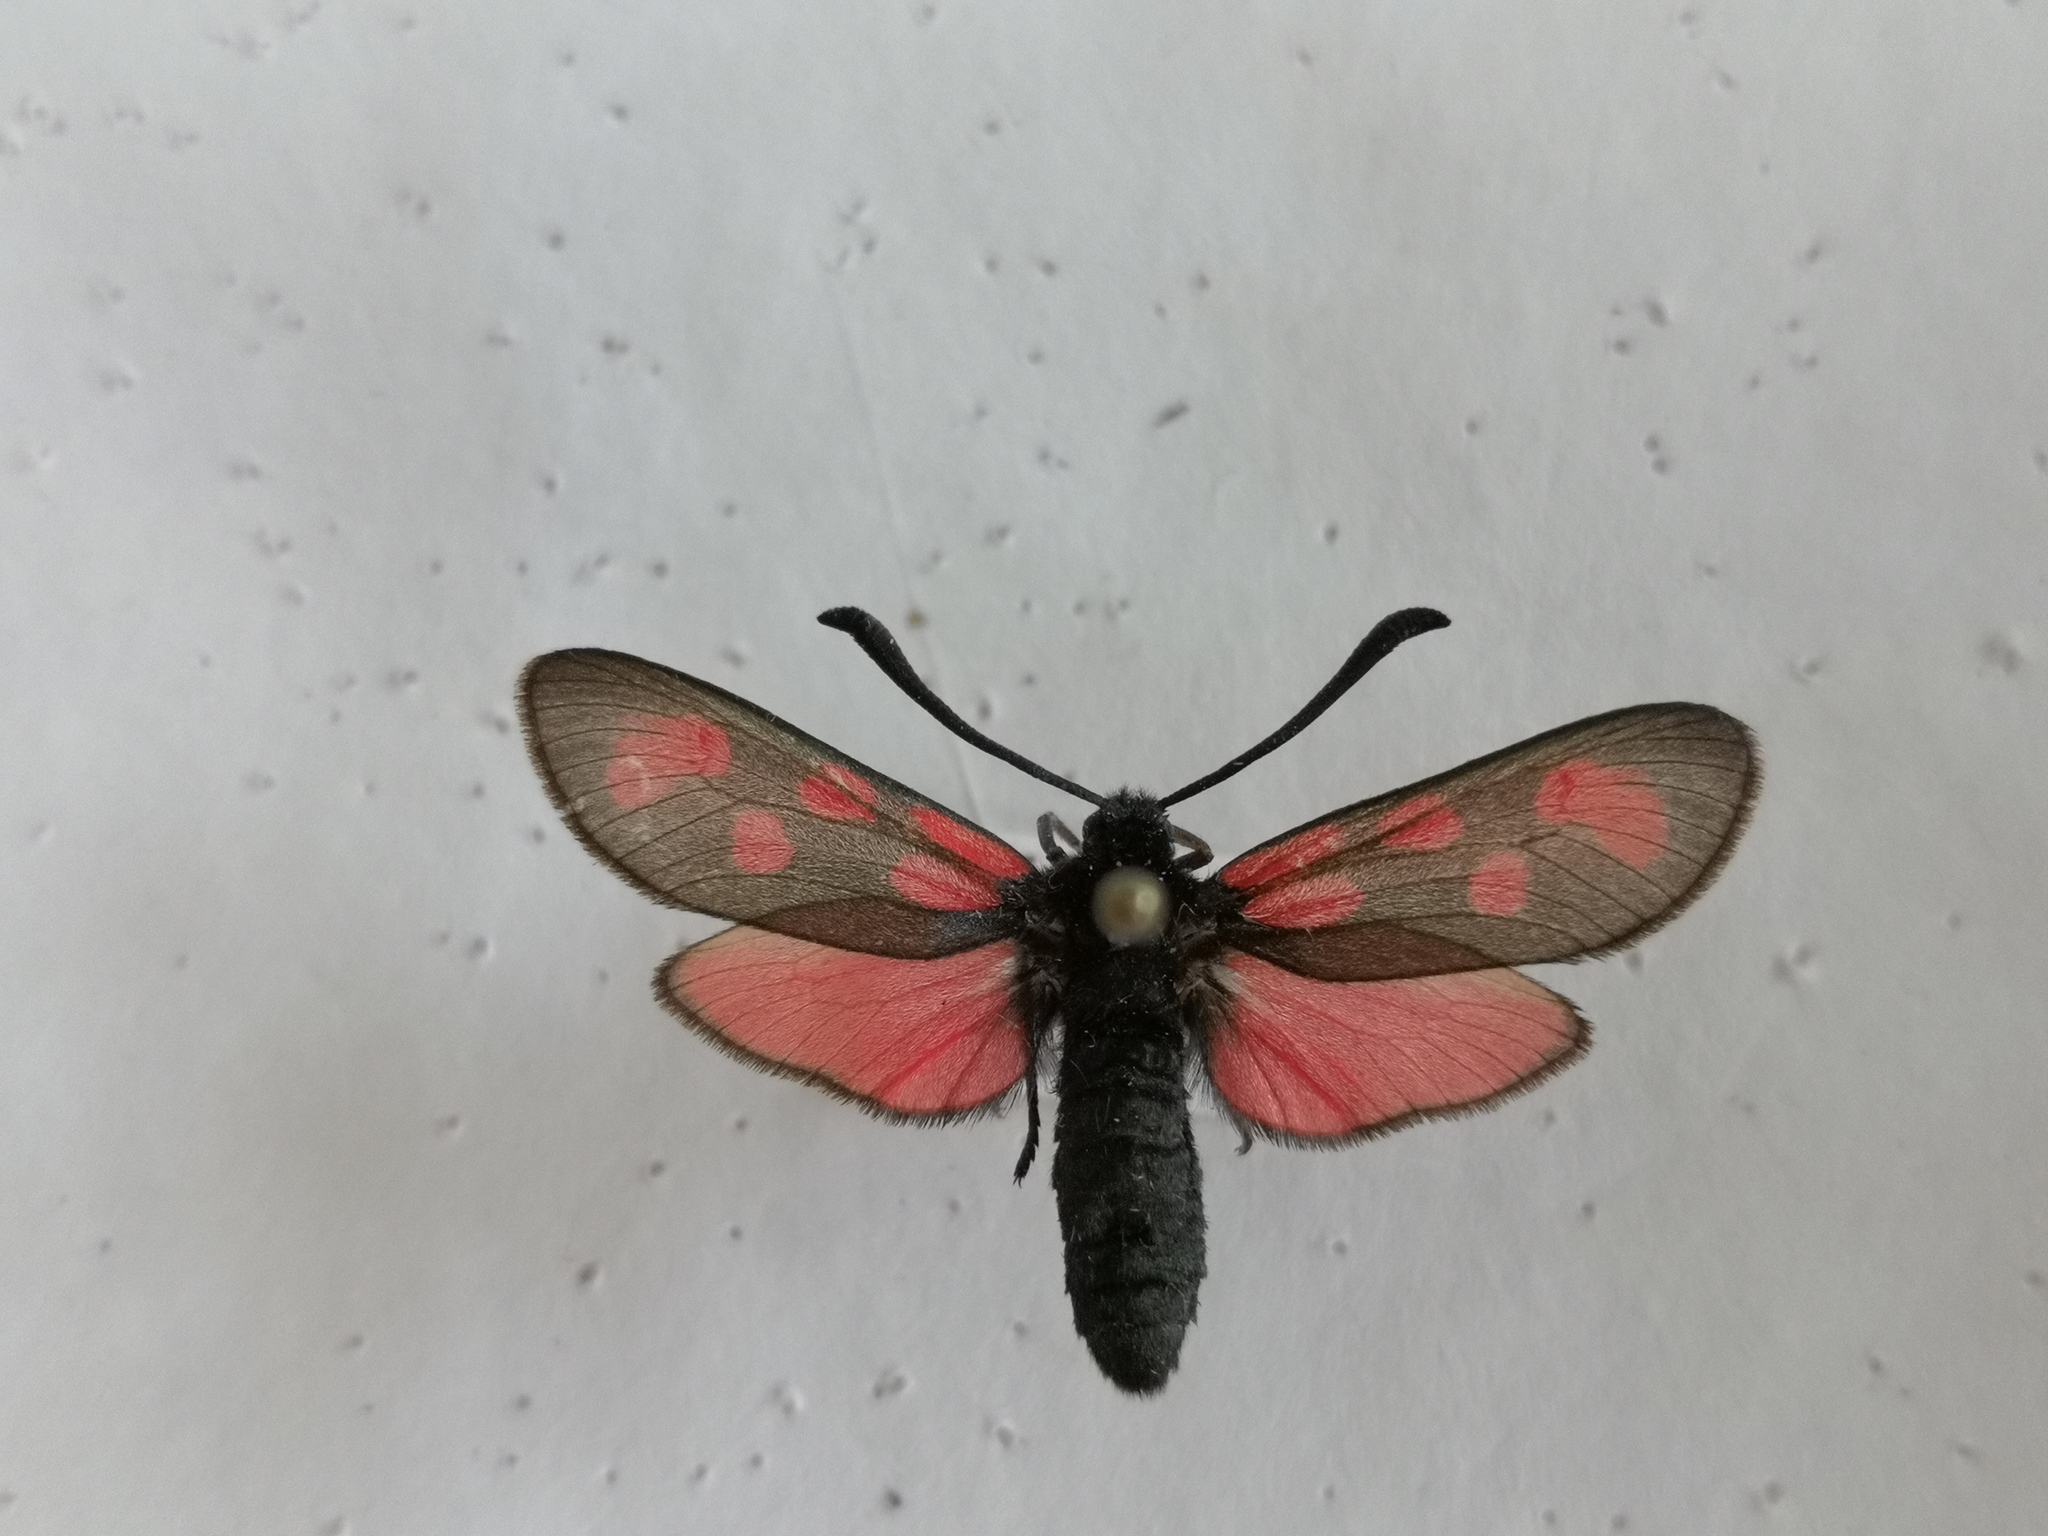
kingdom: Animalia
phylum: Arthropoda
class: Insecta
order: Lepidoptera
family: Zygaenidae
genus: Zygaena
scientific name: Zygaena loti
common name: Slender scotch burnet
